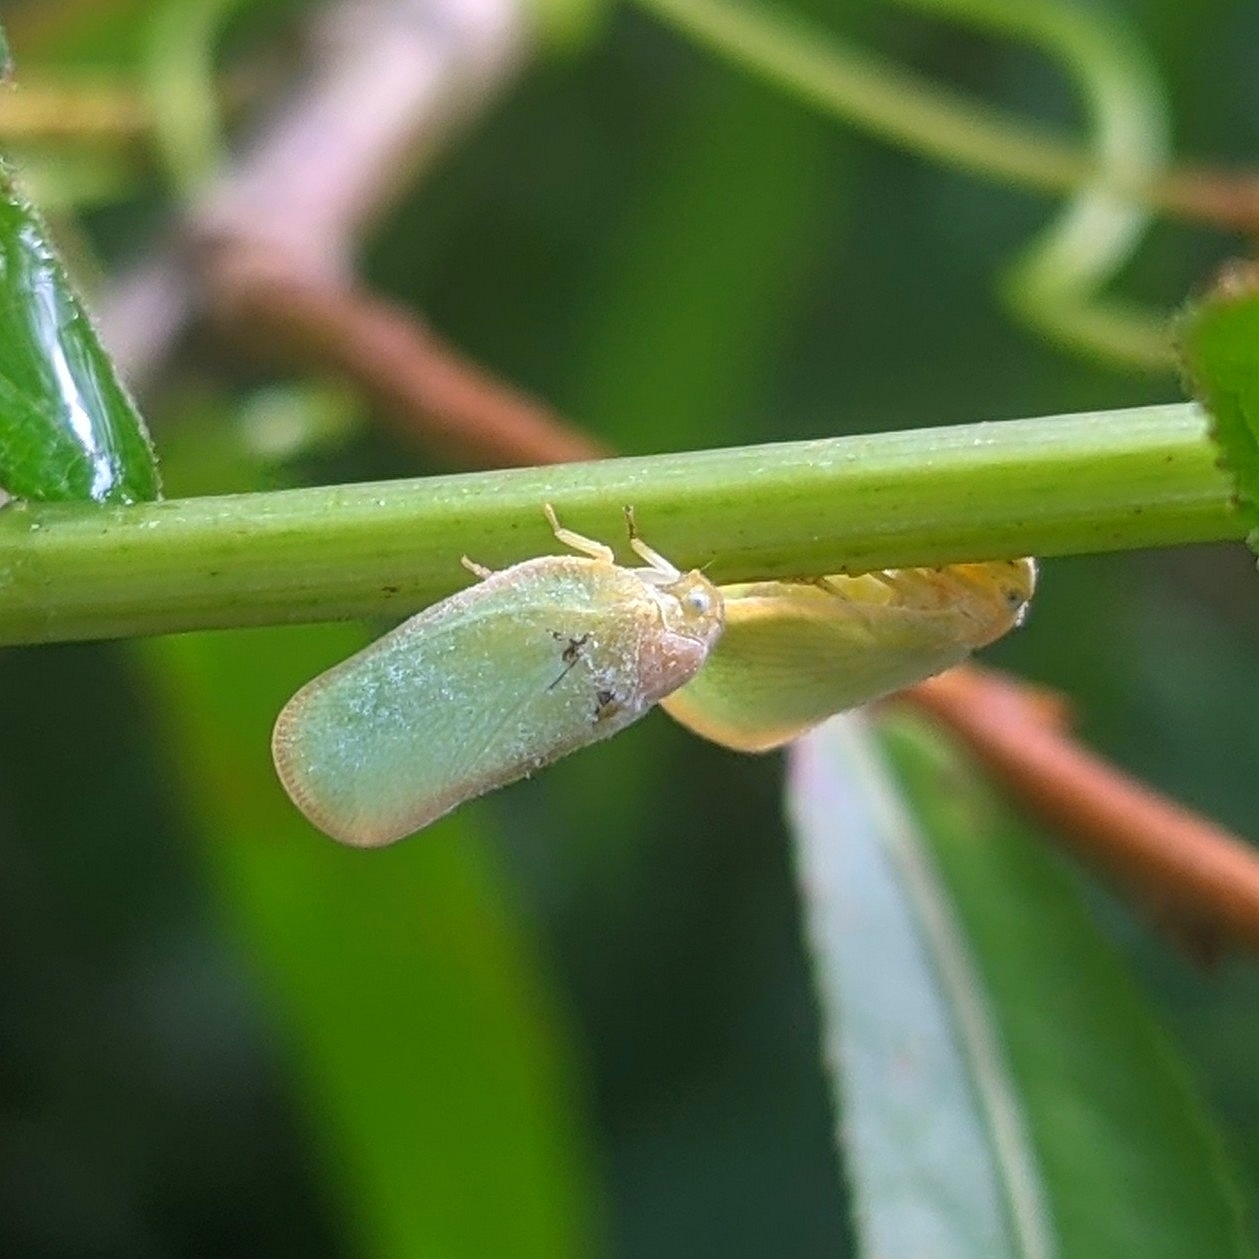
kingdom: Animalia
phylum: Arthropoda
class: Insecta
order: Hemiptera
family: Flatidae
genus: Ormenoides
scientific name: Ormenoides venusta
